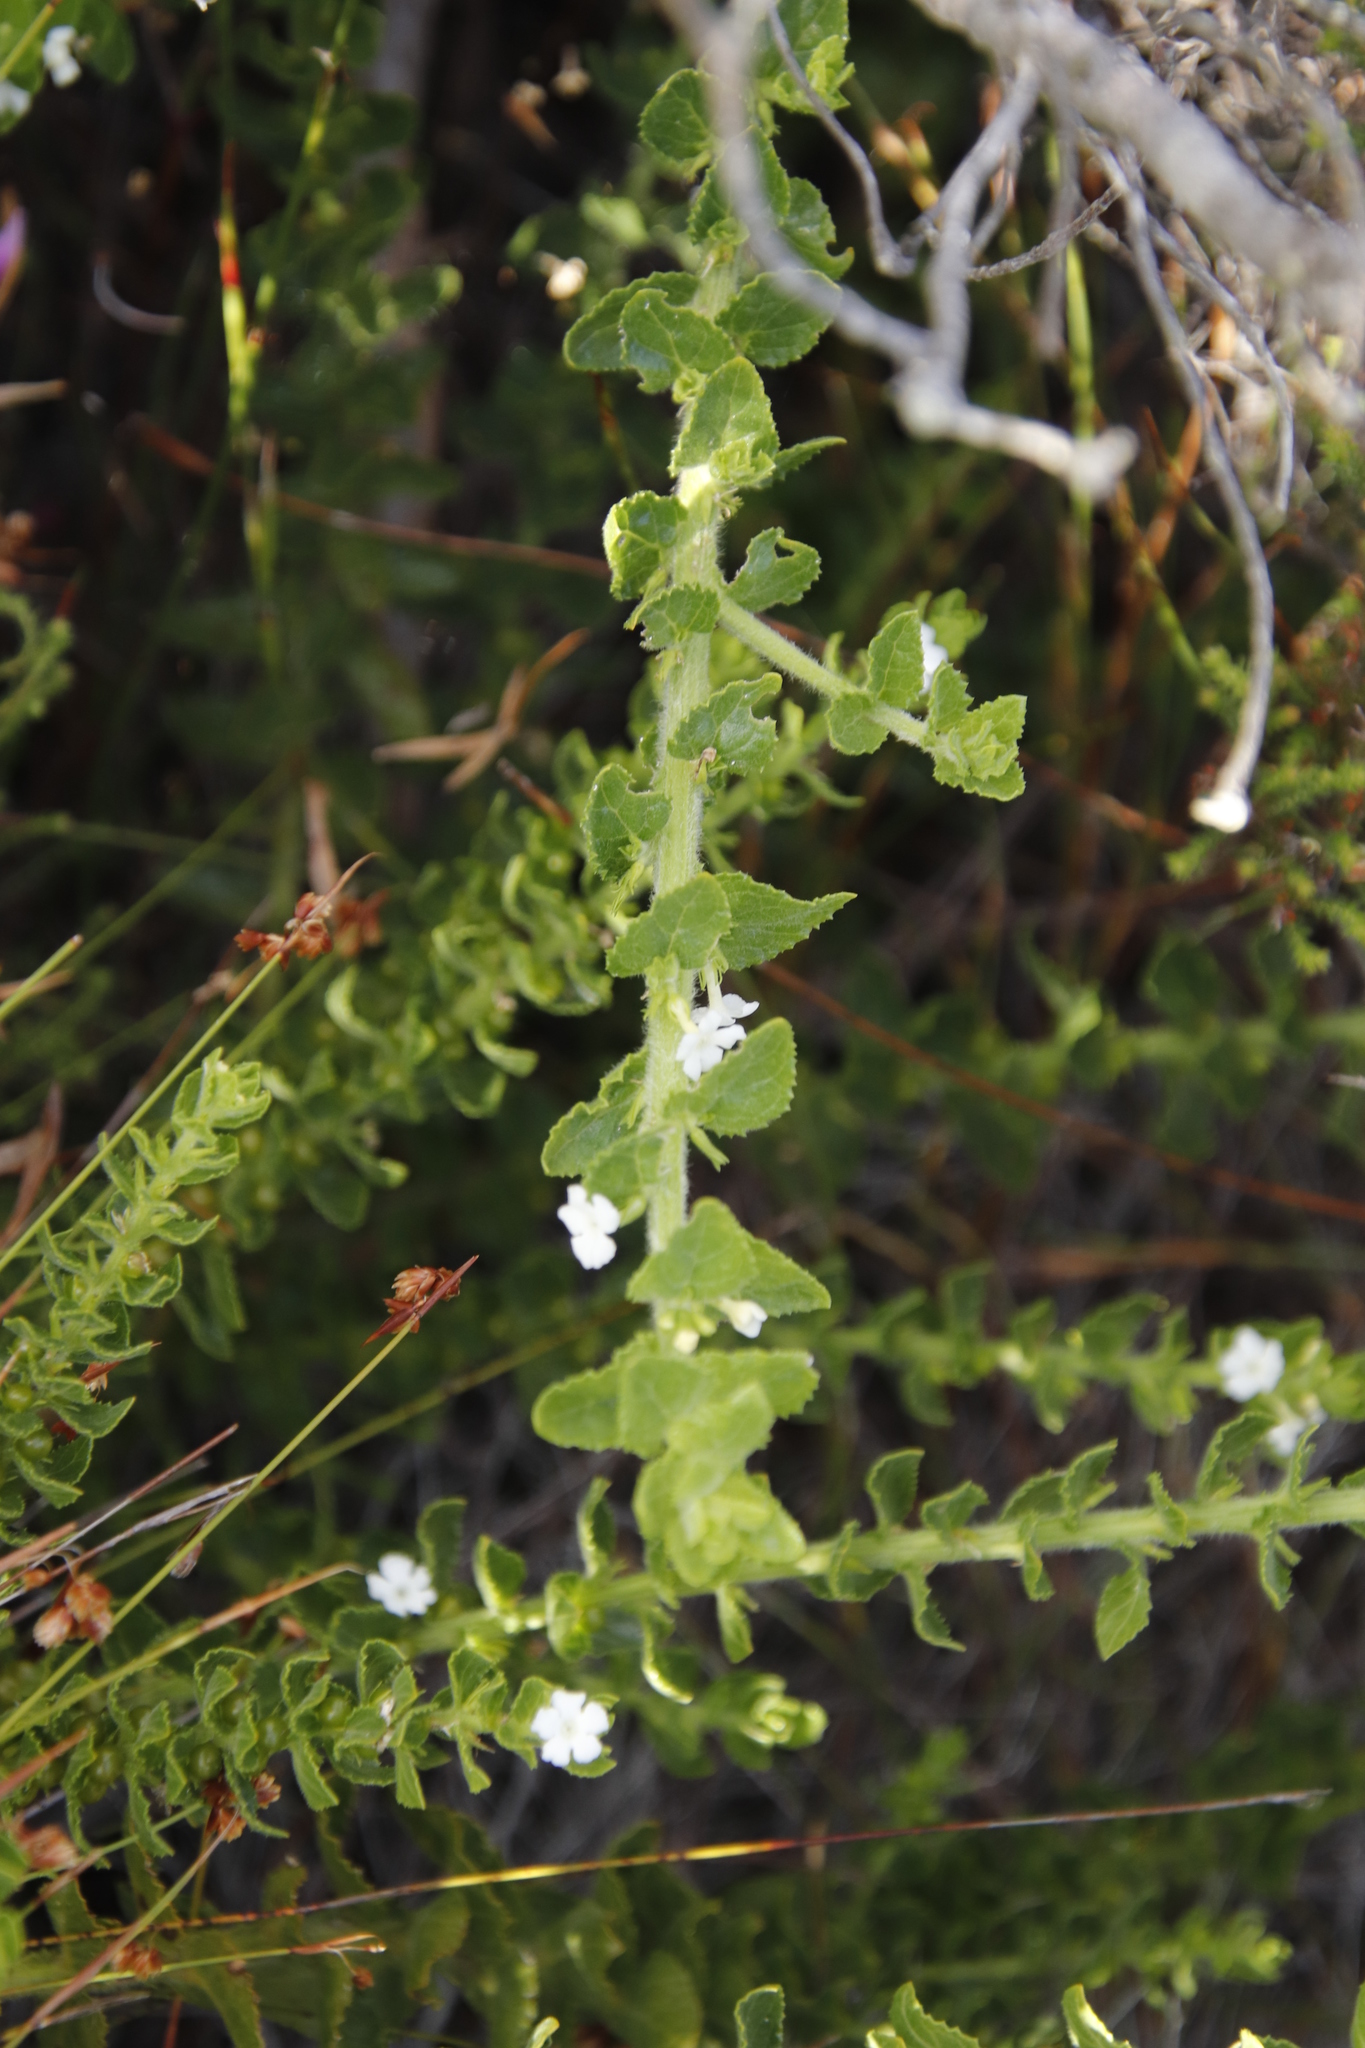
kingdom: Plantae
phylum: Tracheophyta
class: Magnoliopsida
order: Lamiales
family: Scrophulariaceae
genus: Oftia
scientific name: Oftia africana
